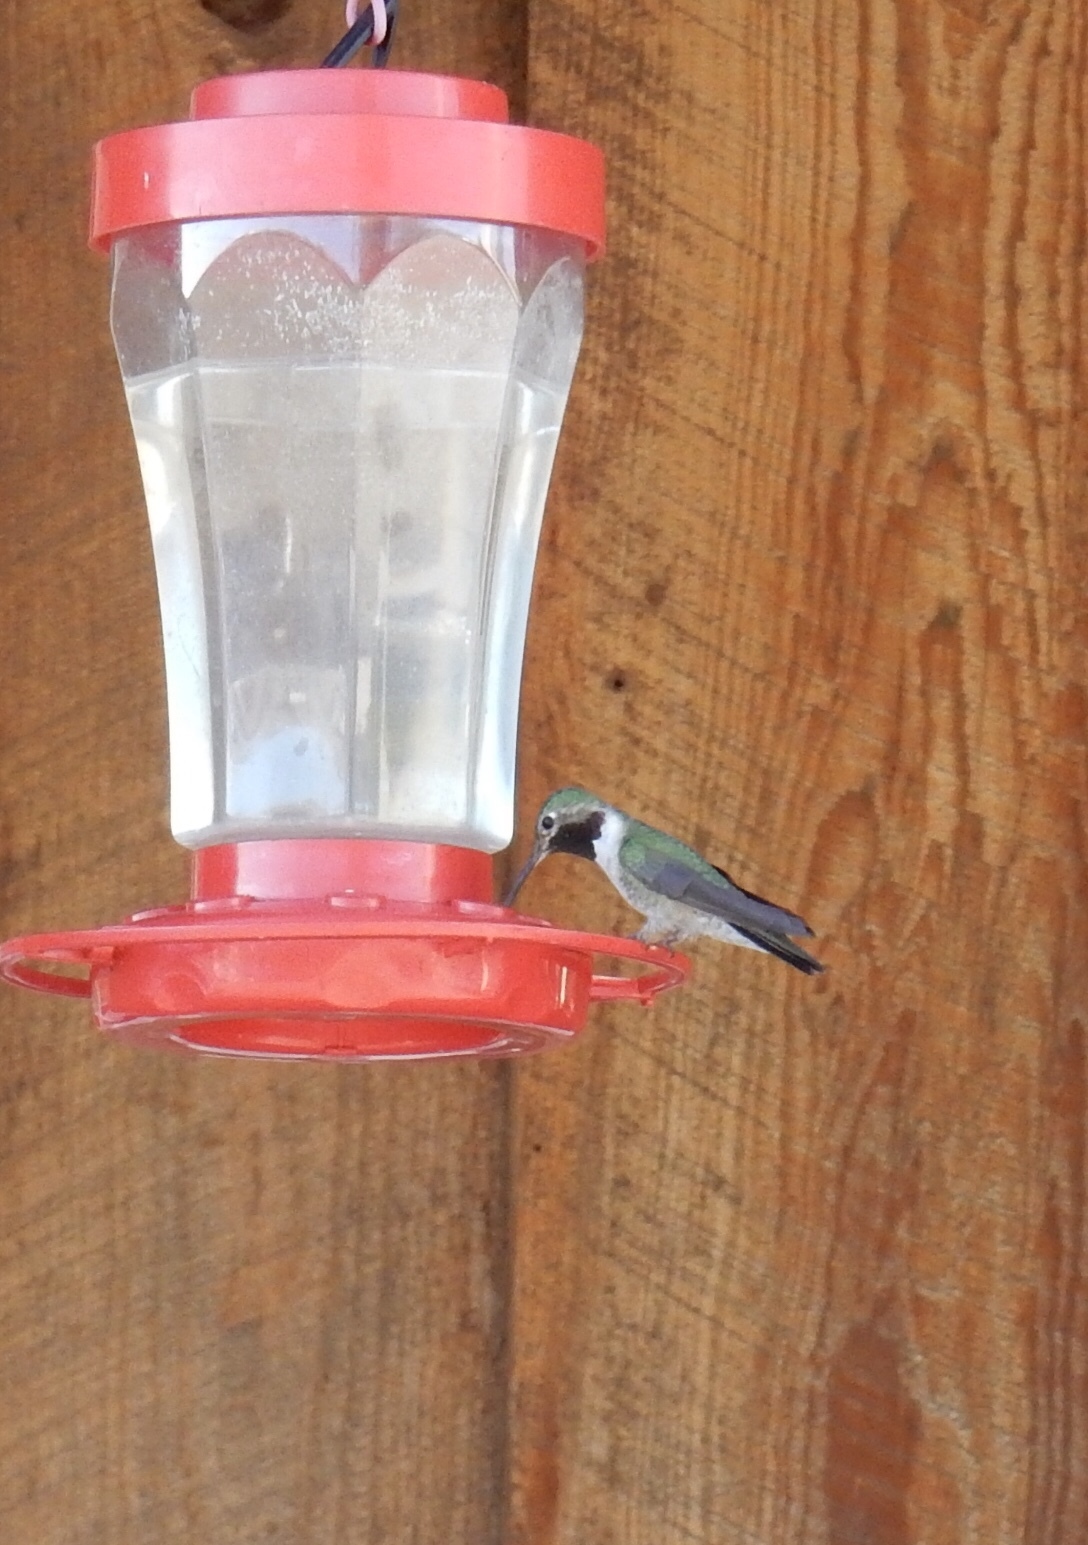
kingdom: Animalia
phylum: Chordata
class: Aves
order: Apodiformes
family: Trochilidae
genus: Selasphorus
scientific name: Selasphorus platycercus
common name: Broad-tailed hummingbird
